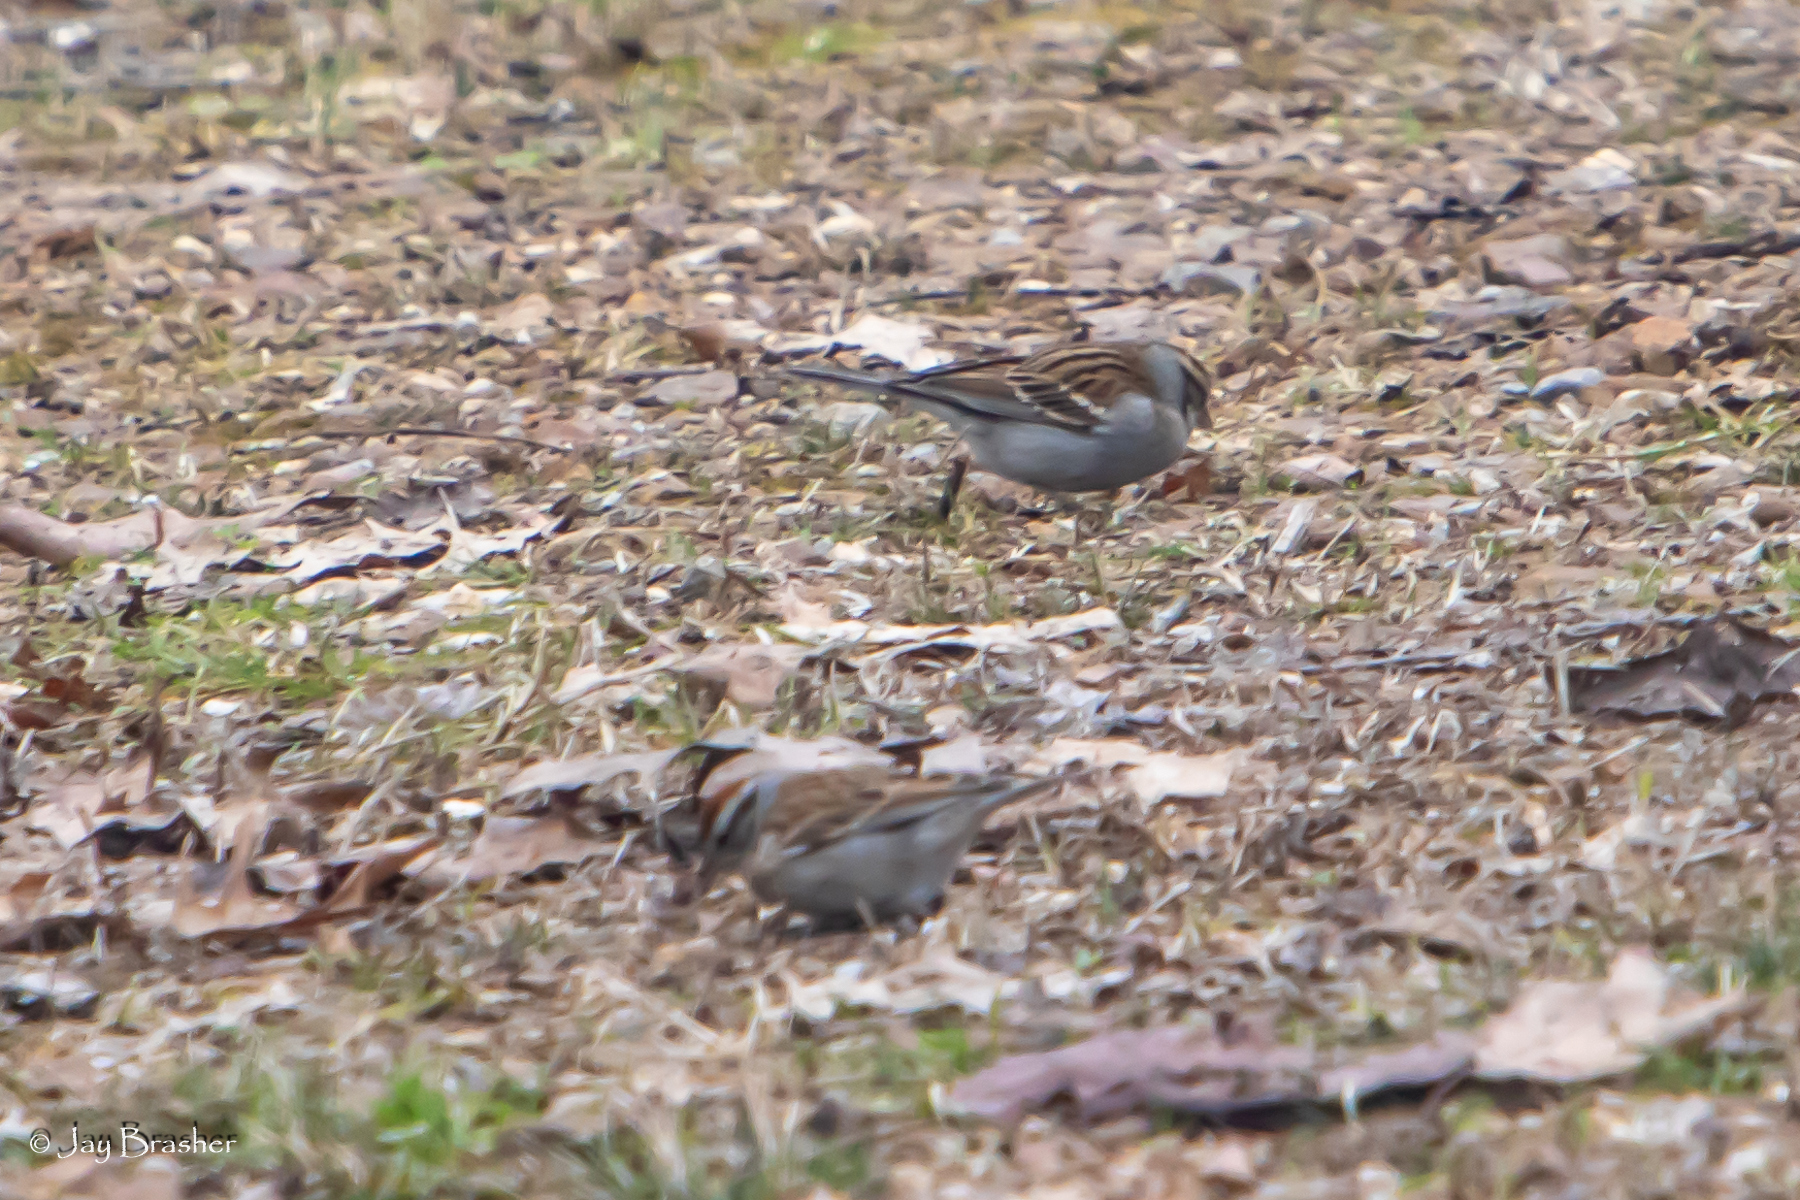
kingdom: Animalia
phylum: Chordata
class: Aves
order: Passeriformes
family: Passerellidae
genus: Spizella
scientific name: Spizella passerina
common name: Chipping sparrow
